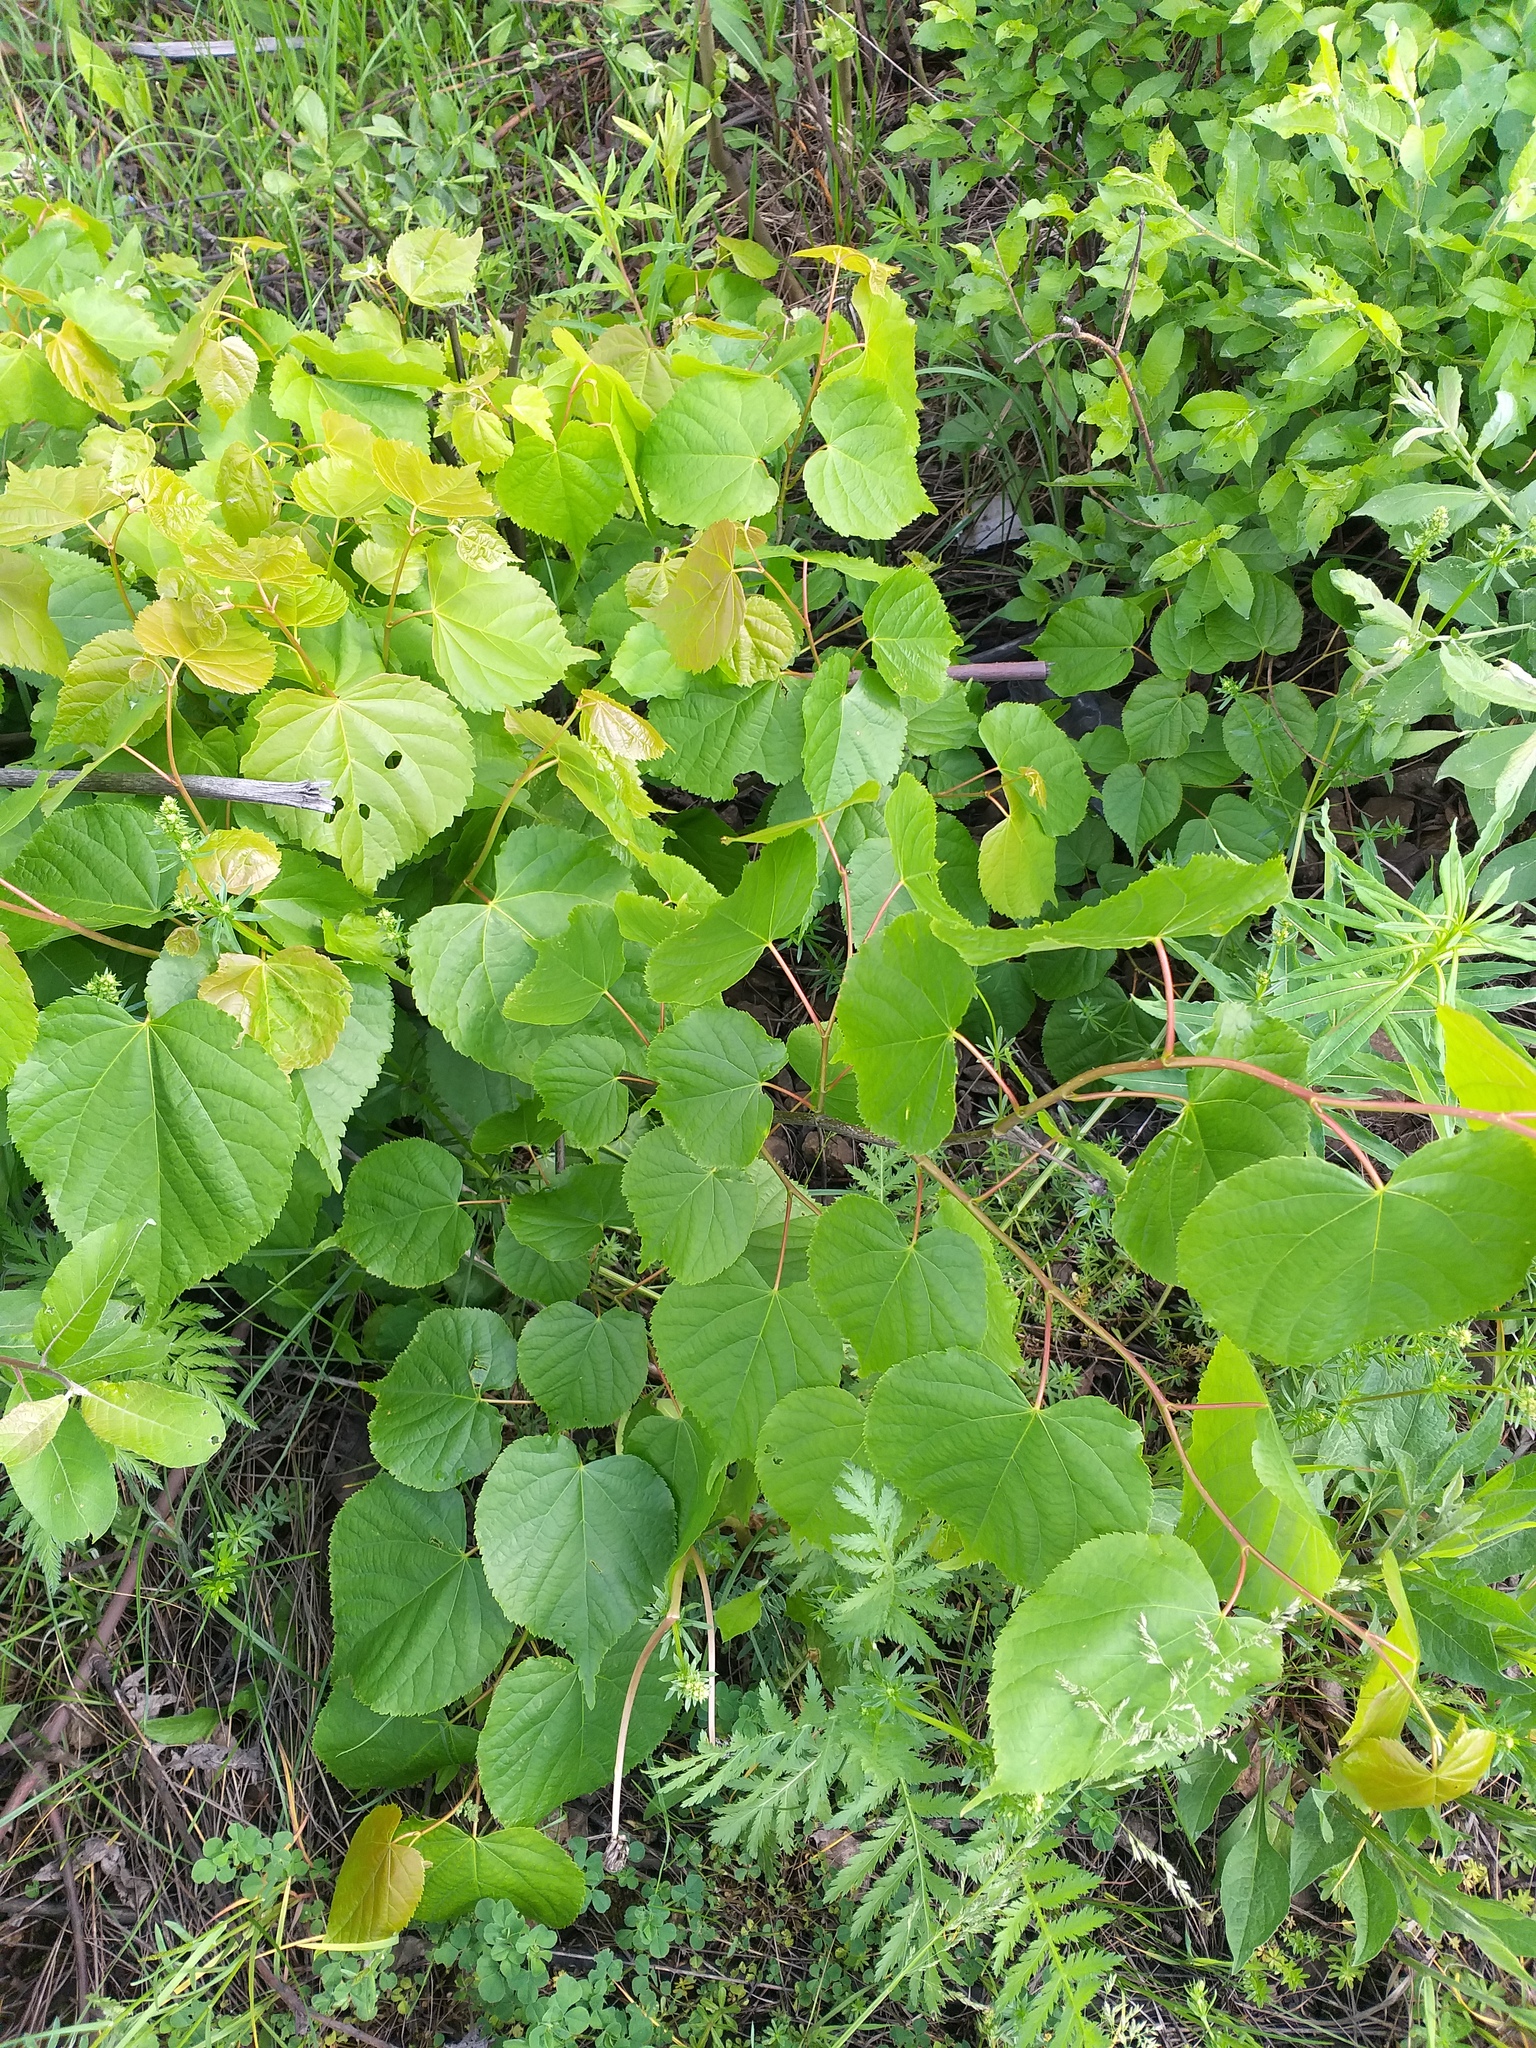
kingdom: Plantae
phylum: Tracheophyta
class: Magnoliopsida
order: Malvales
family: Malvaceae
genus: Tilia
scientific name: Tilia cordata
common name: Small-leaved lime
